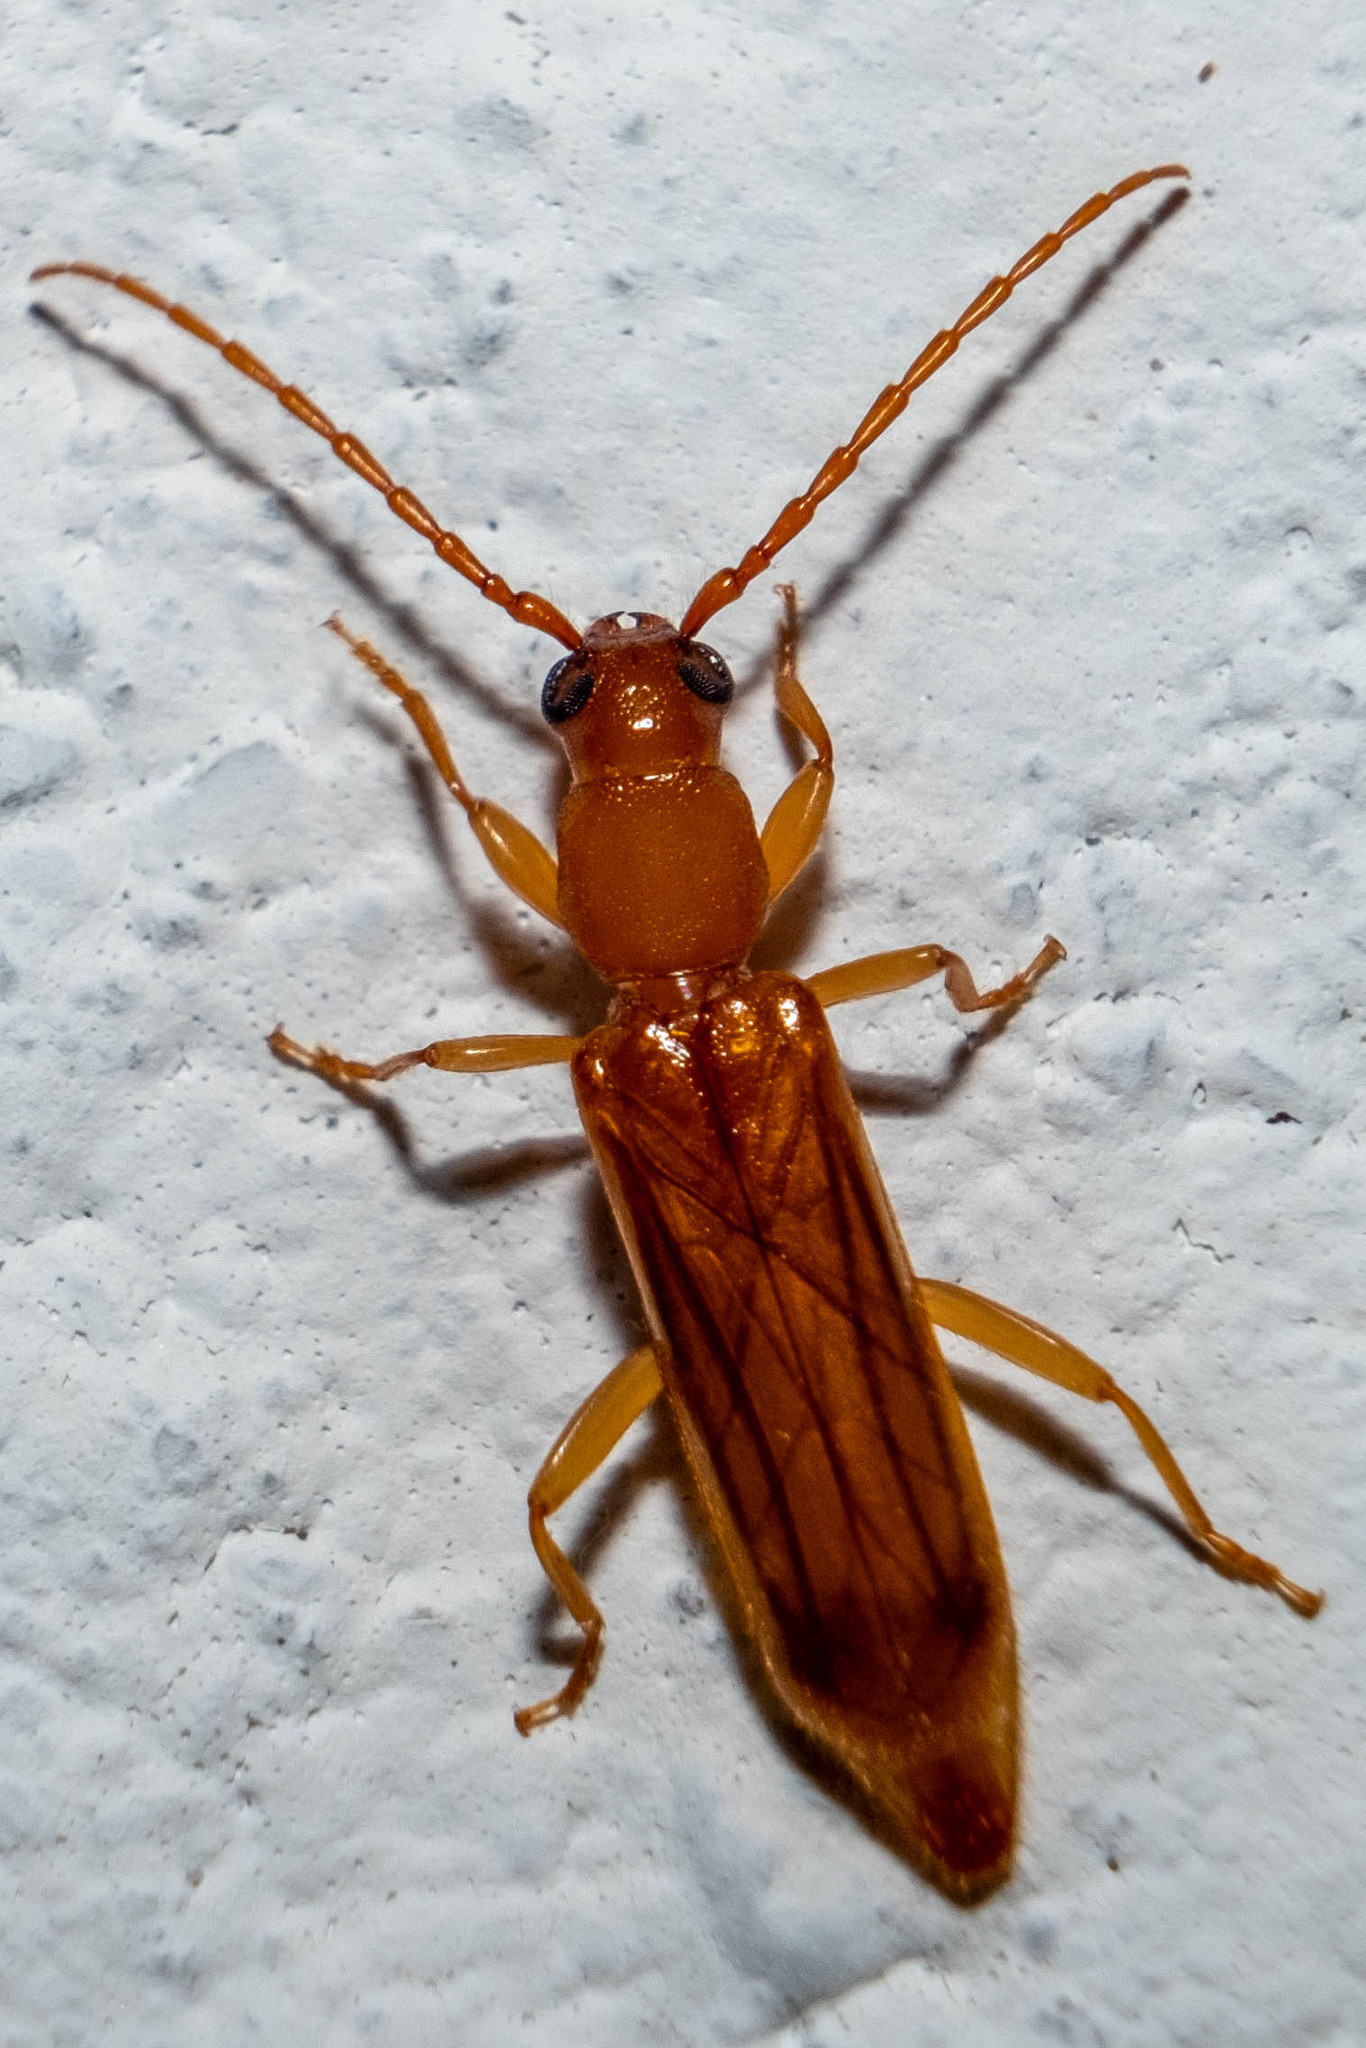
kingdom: Animalia
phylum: Arthropoda
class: Insecta
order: Coleoptera
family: Cerambycidae
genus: Smodicum
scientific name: Smodicum cucujiforme
